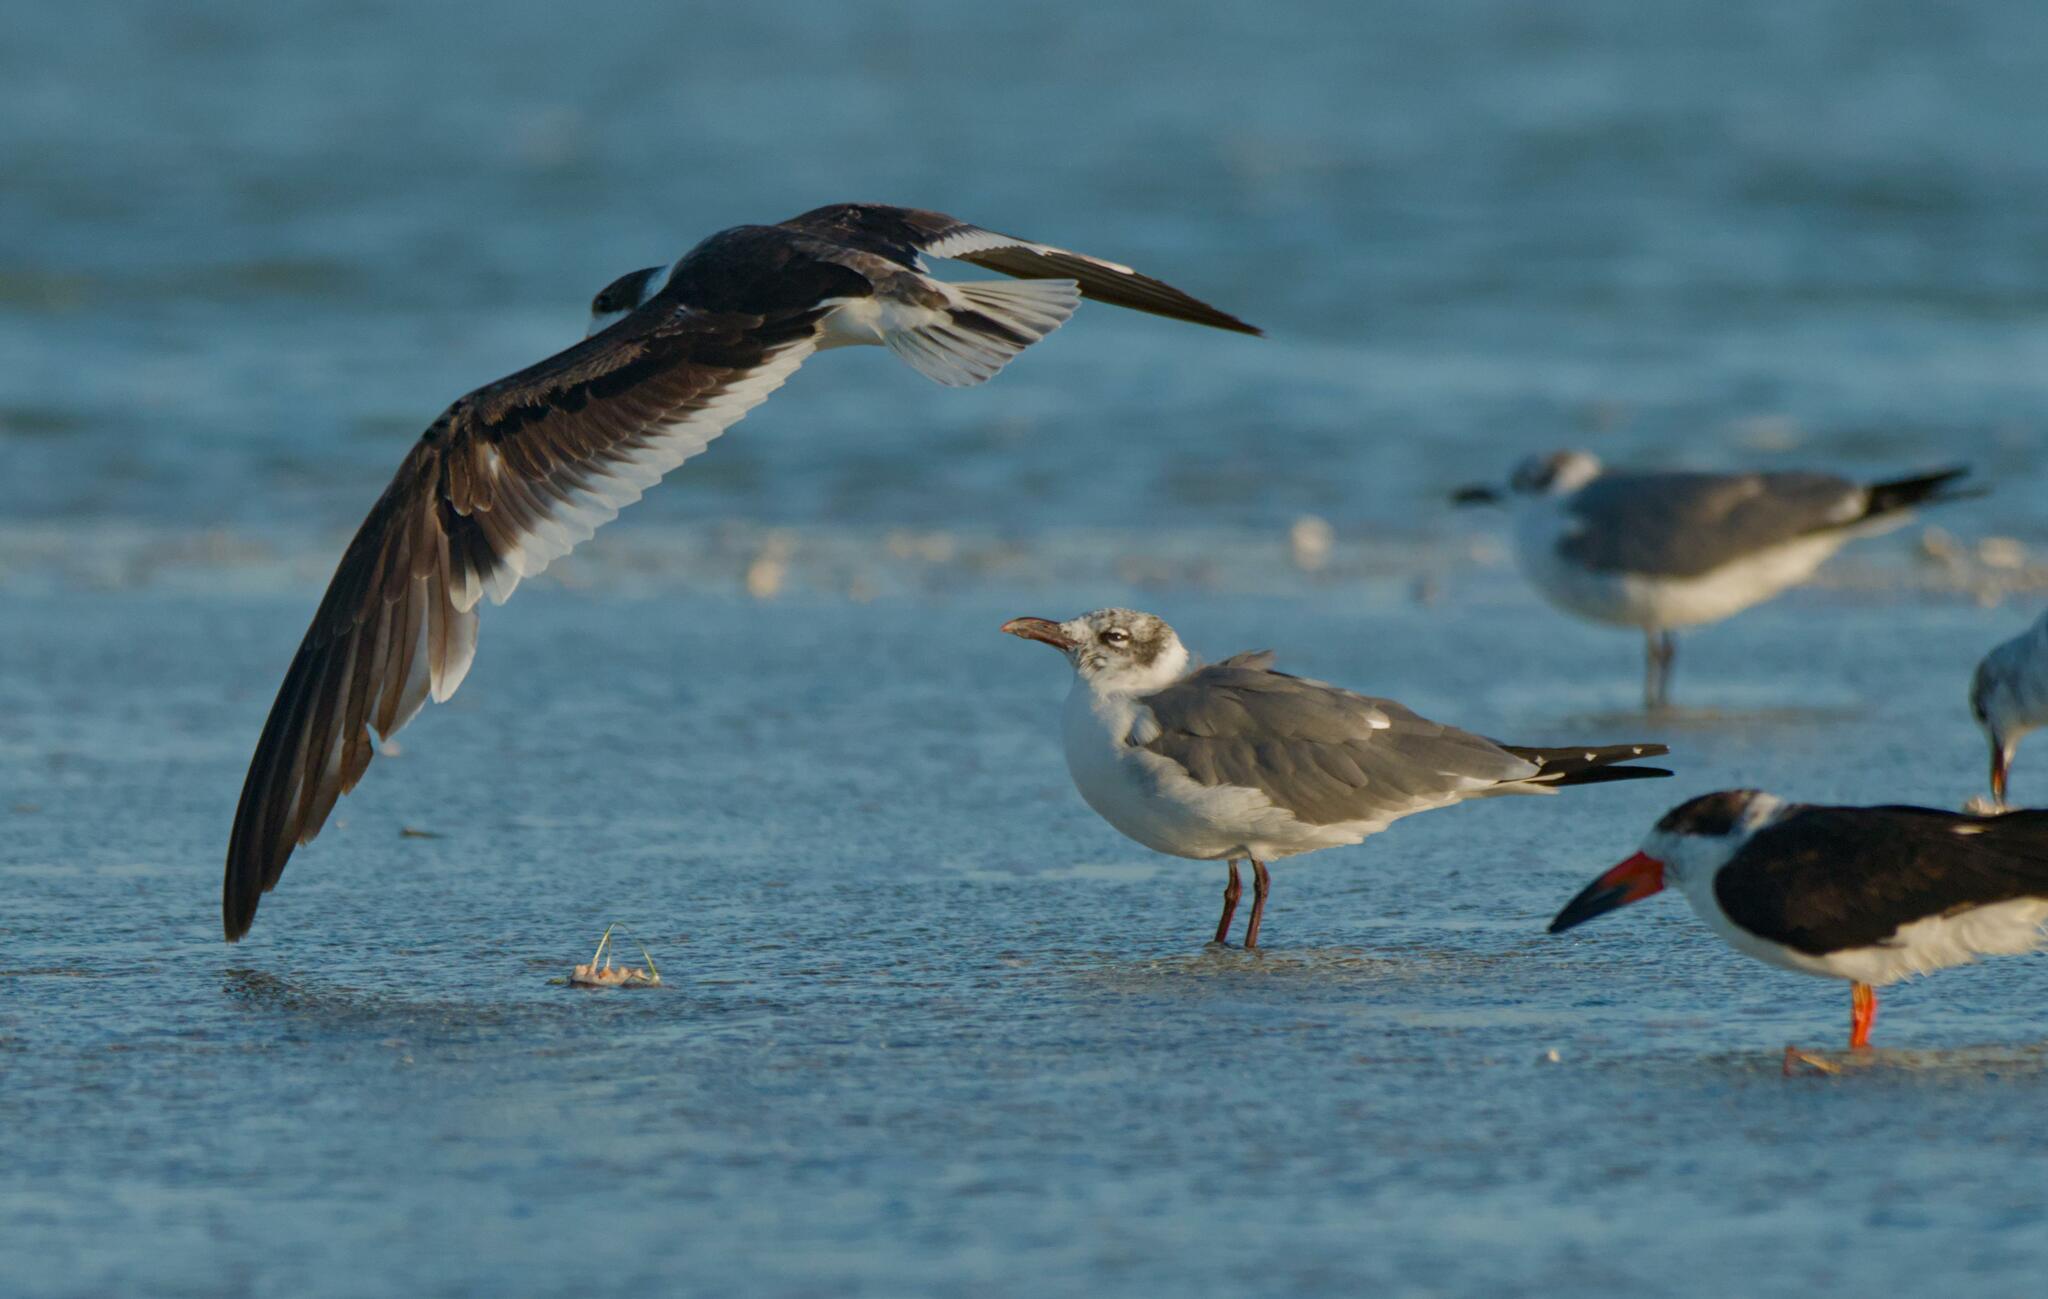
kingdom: Animalia
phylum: Chordata
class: Aves
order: Charadriiformes
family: Laridae
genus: Leucophaeus
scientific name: Leucophaeus atricilla
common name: Laughing gull
